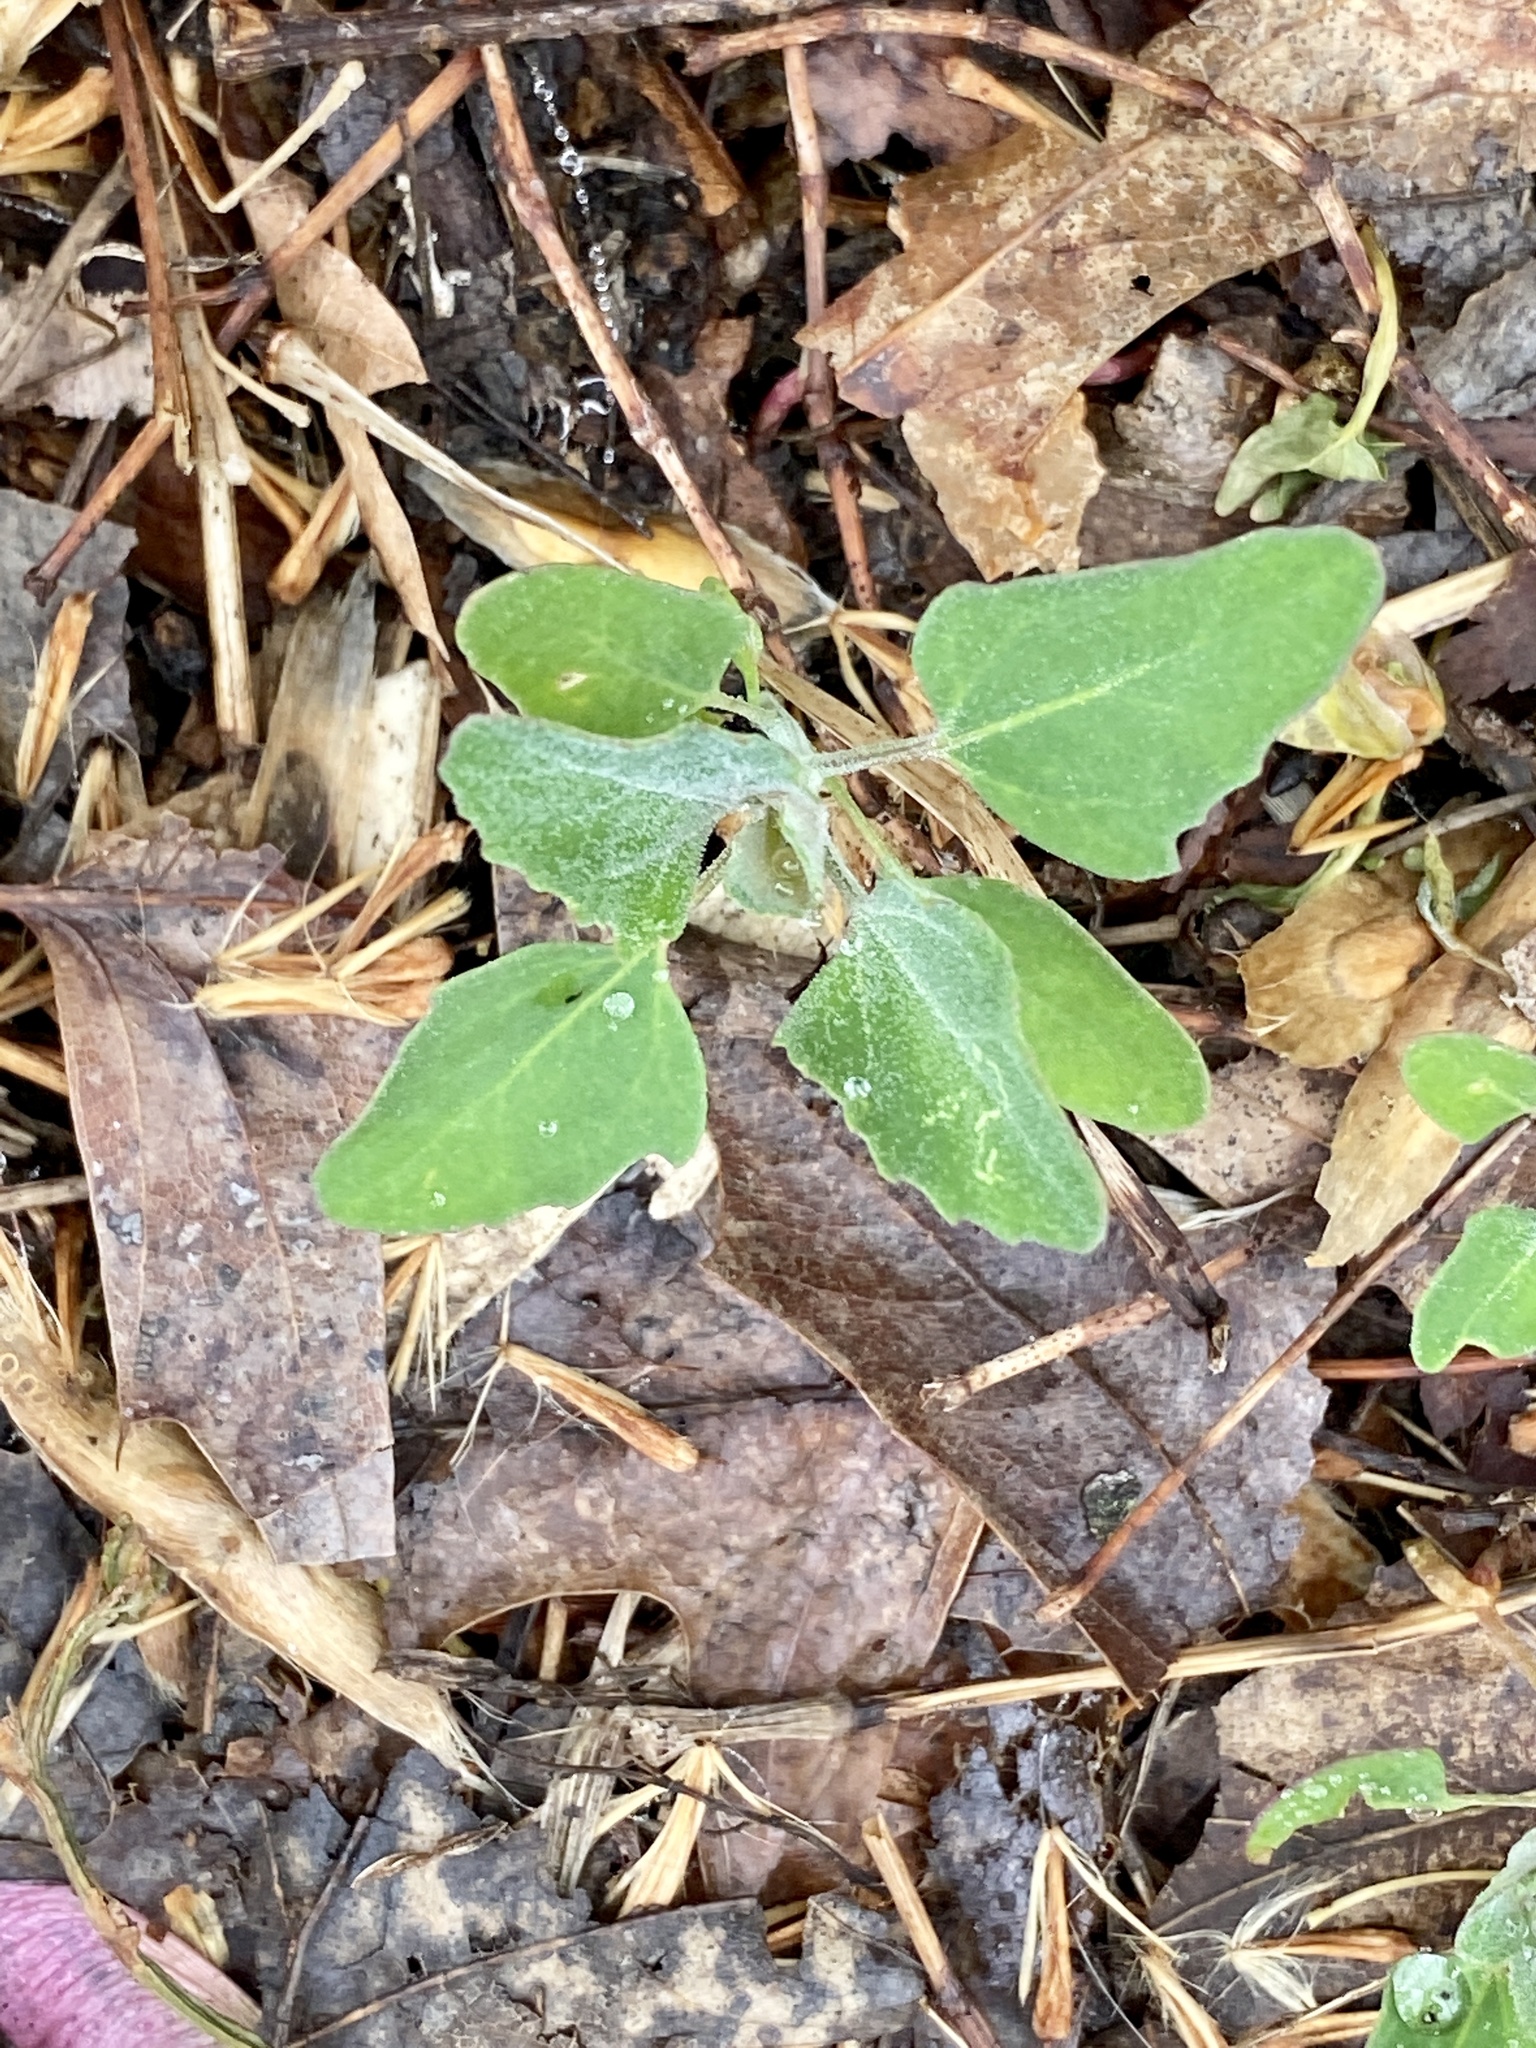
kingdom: Plantae
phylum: Tracheophyta
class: Magnoliopsida
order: Caryophyllales
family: Amaranthaceae
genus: Chenopodium
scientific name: Chenopodium album
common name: Fat-hen
